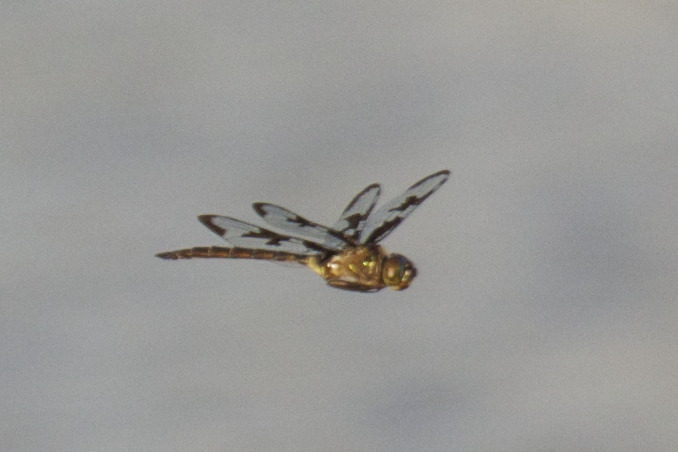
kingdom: Animalia
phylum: Arthropoda
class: Insecta
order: Odonata
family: Corduliidae
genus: Epitheca
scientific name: Epitheca princeps
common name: Prince baskettail
